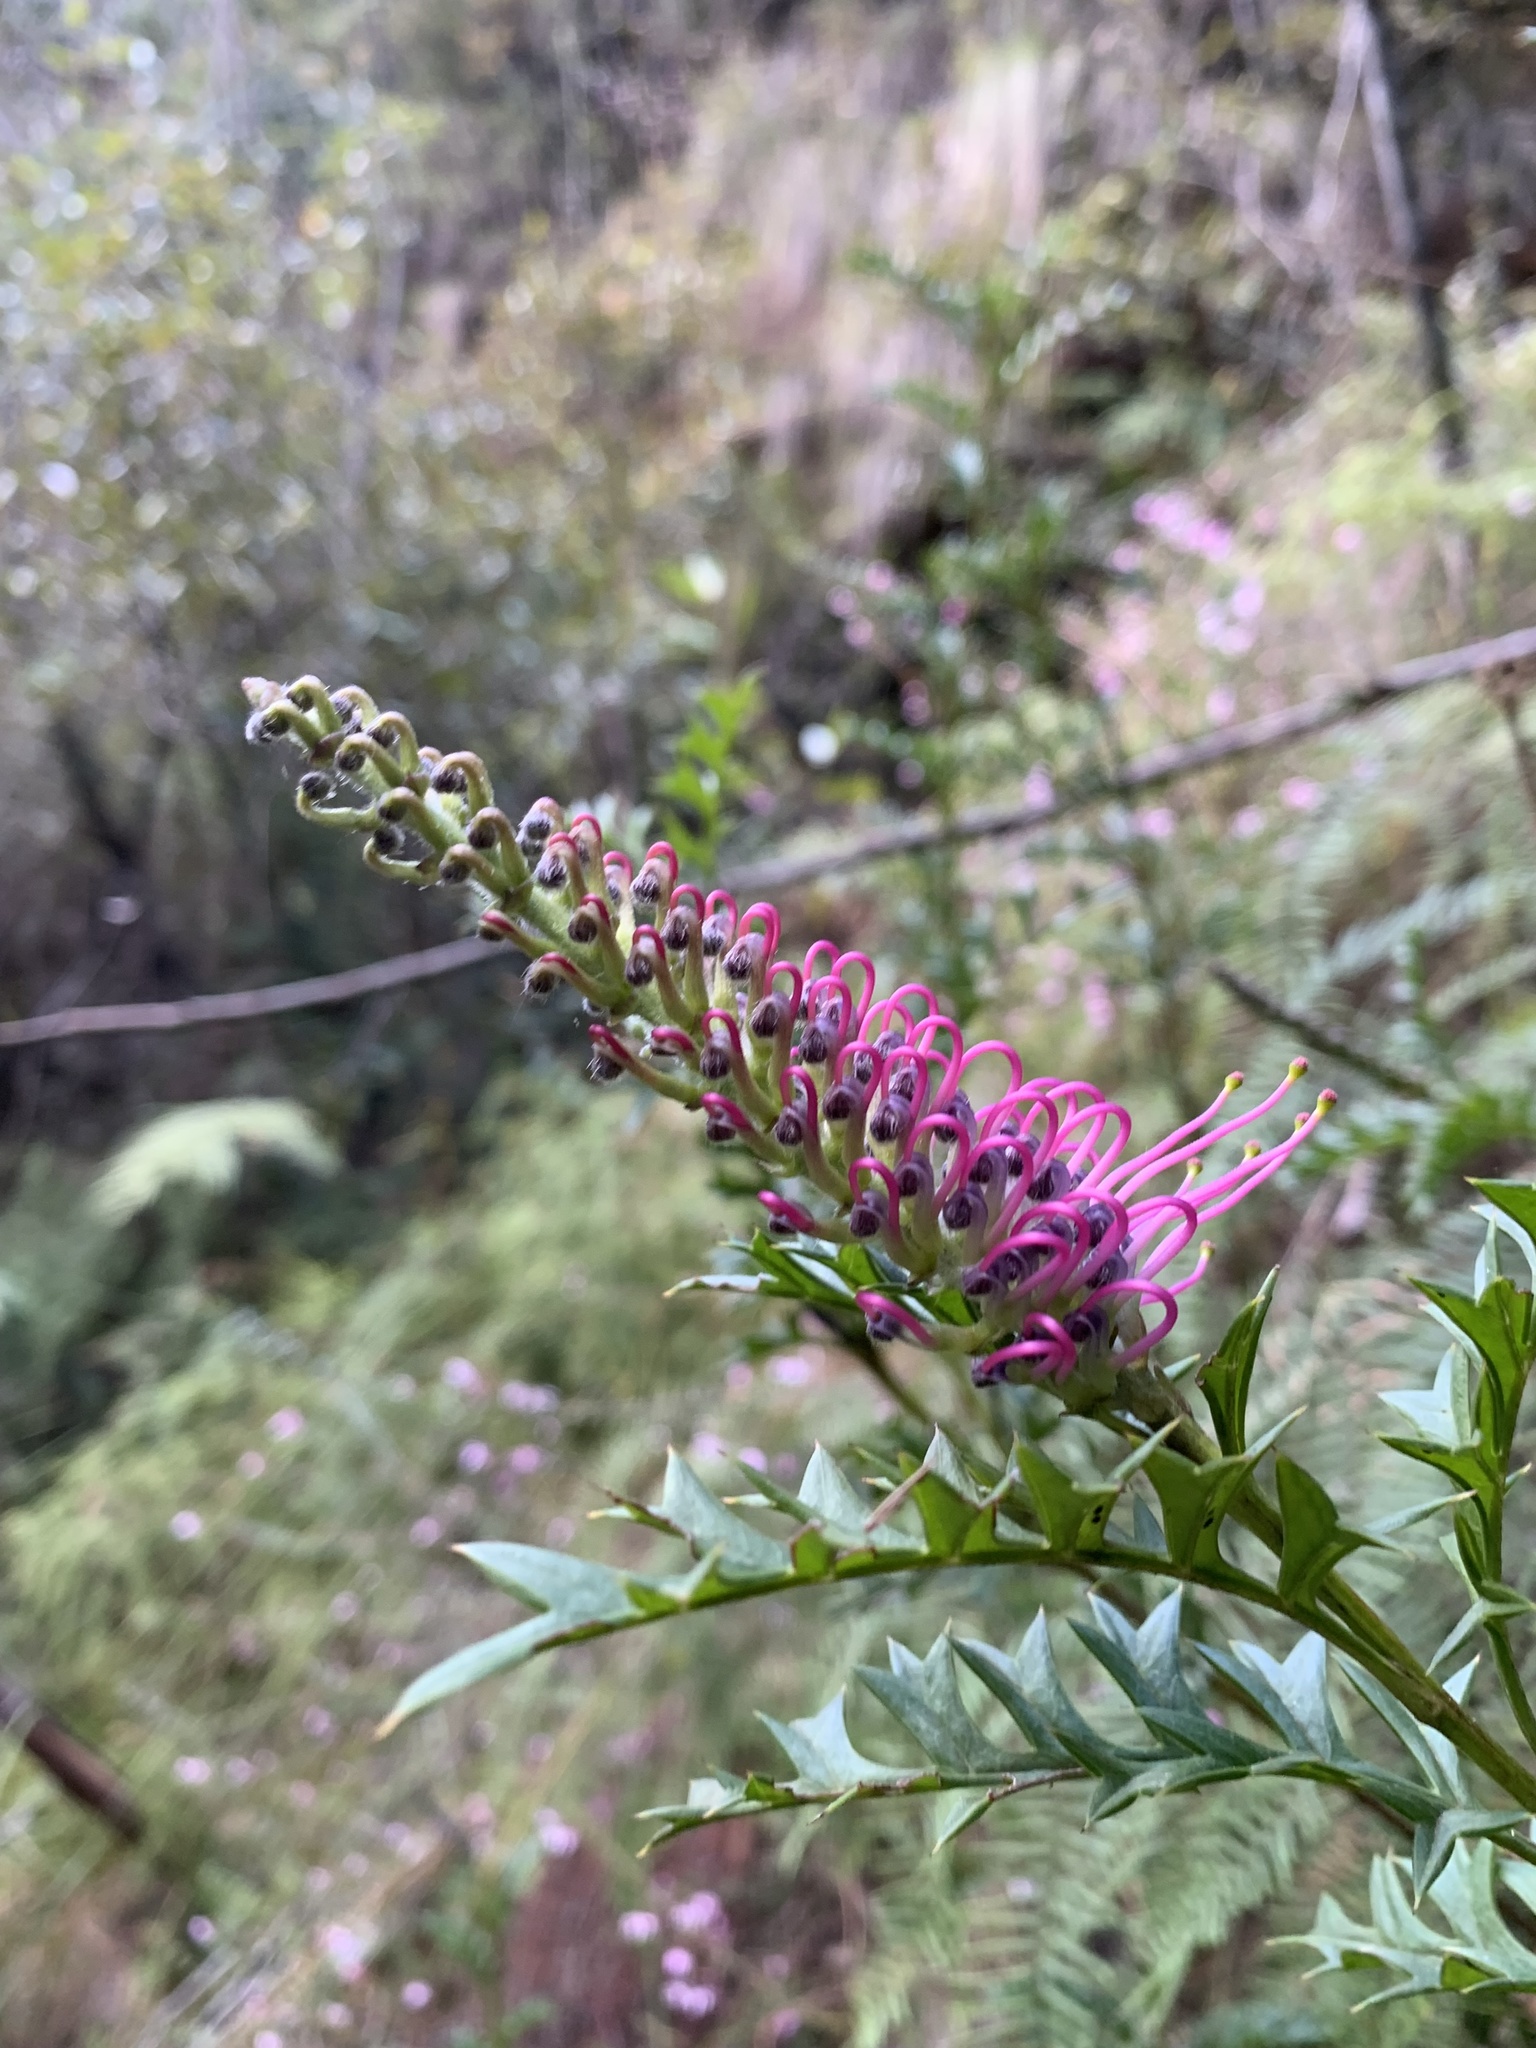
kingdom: Plantae
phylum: Tracheophyta
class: Magnoliopsida
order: Proteales
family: Proteaceae
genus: Grevillea
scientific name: Grevillea acanthifolia
